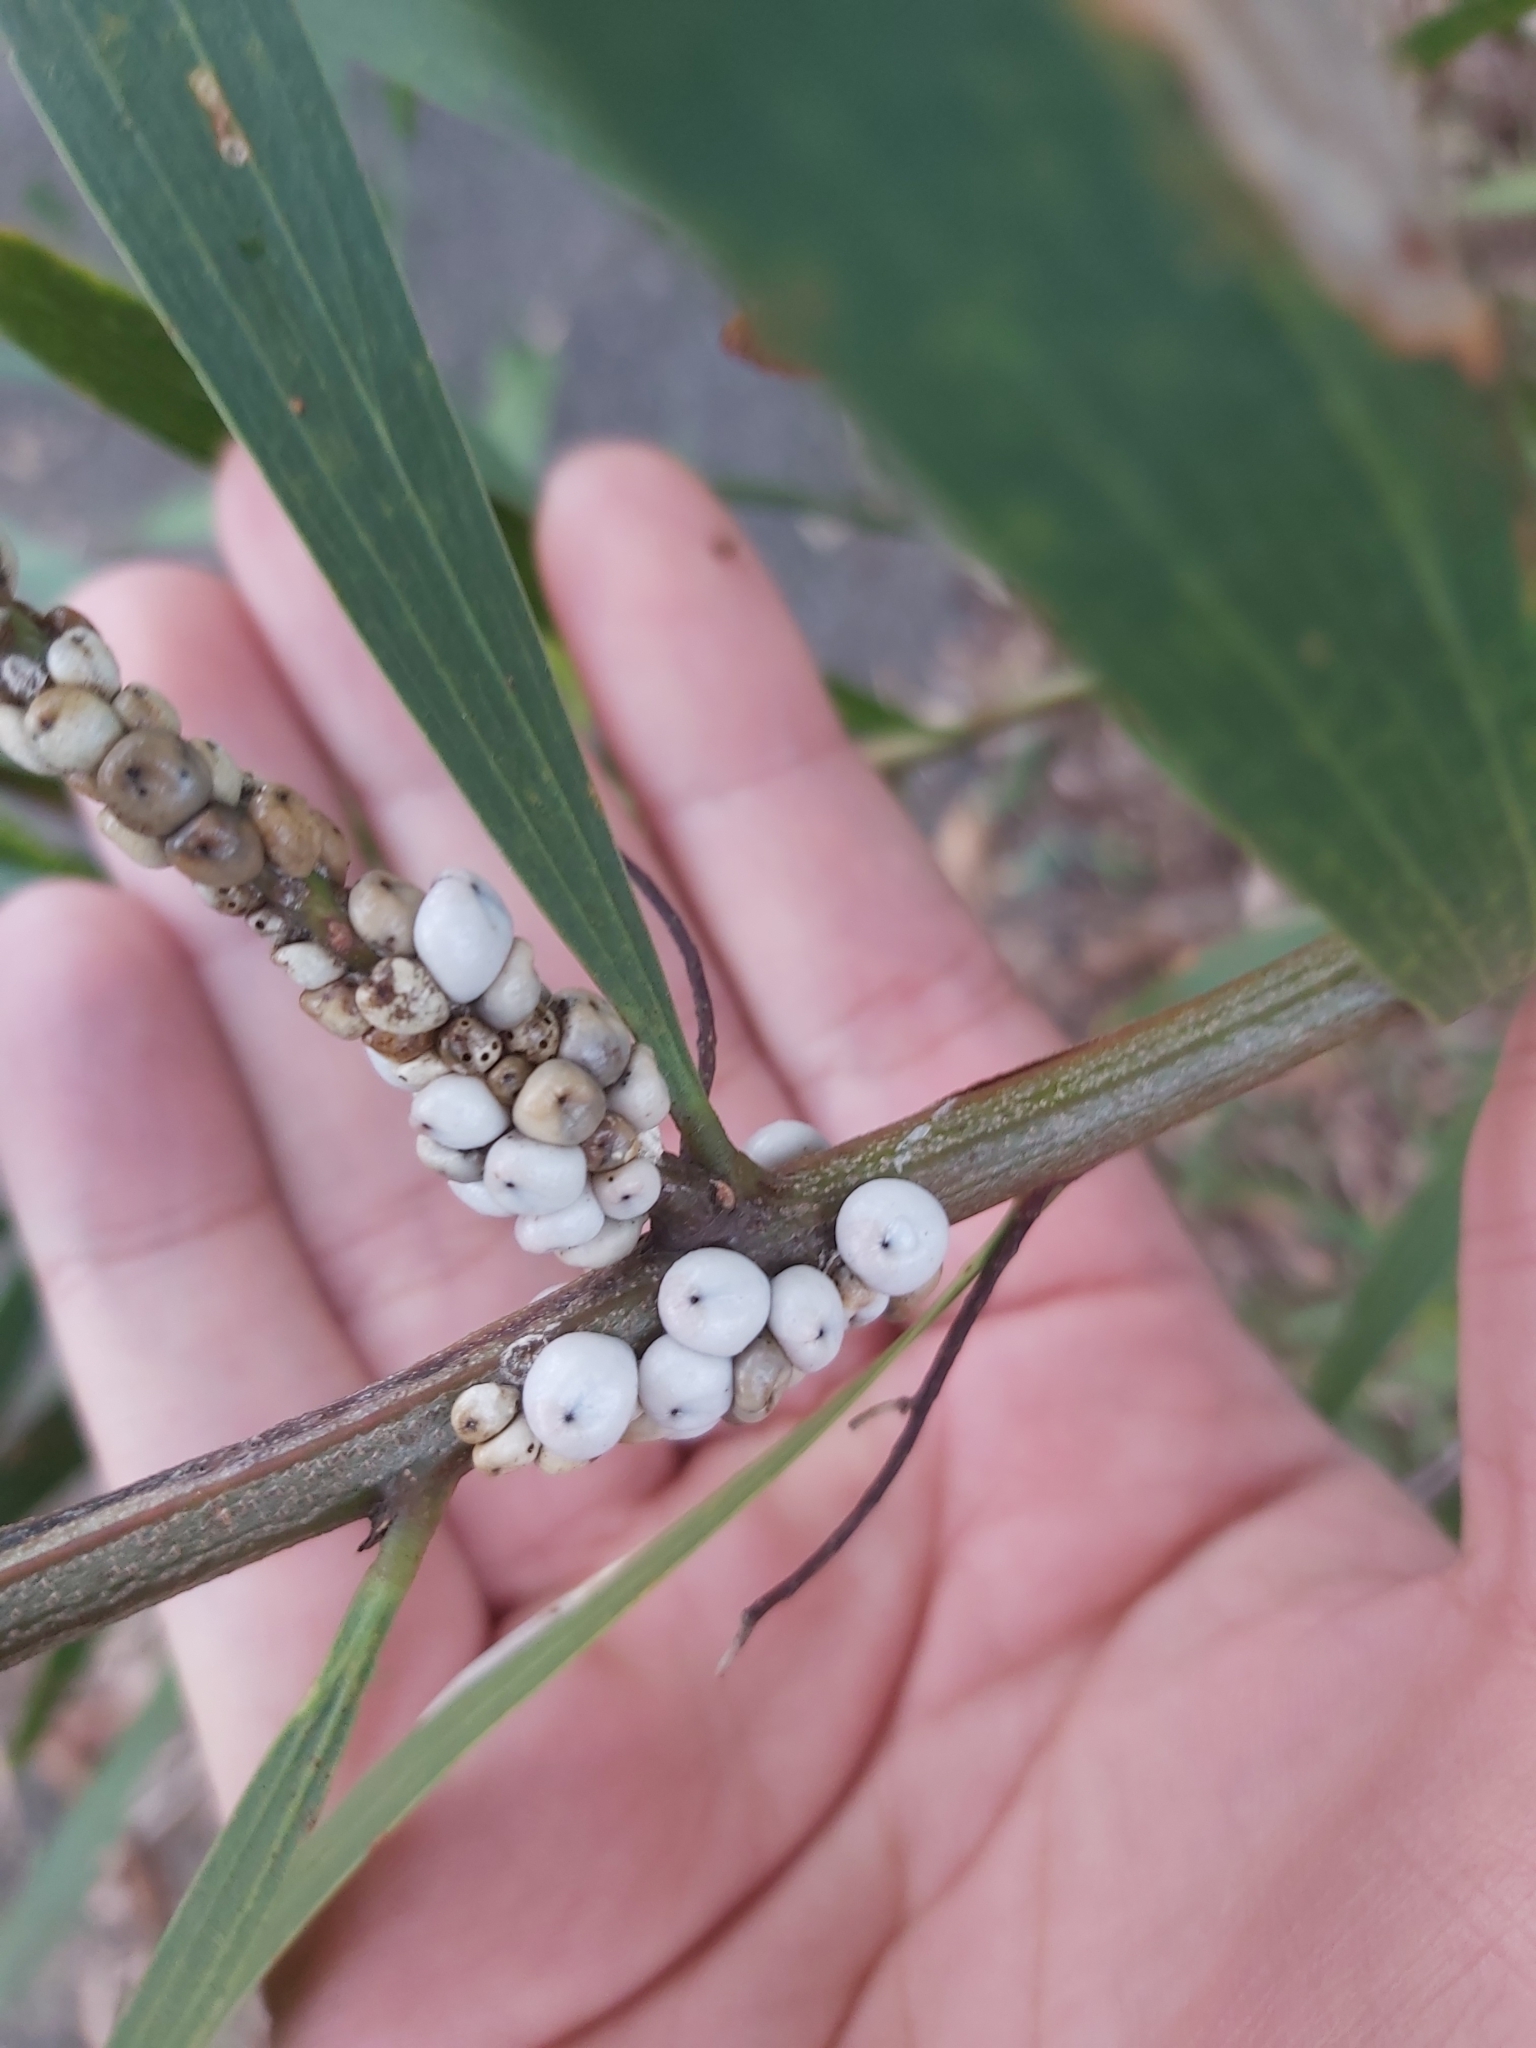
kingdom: Animalia
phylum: Arthropoda
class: Insecta
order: Hemiptera
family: Coccidae
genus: Cryptes
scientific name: Cryptes baccatus
